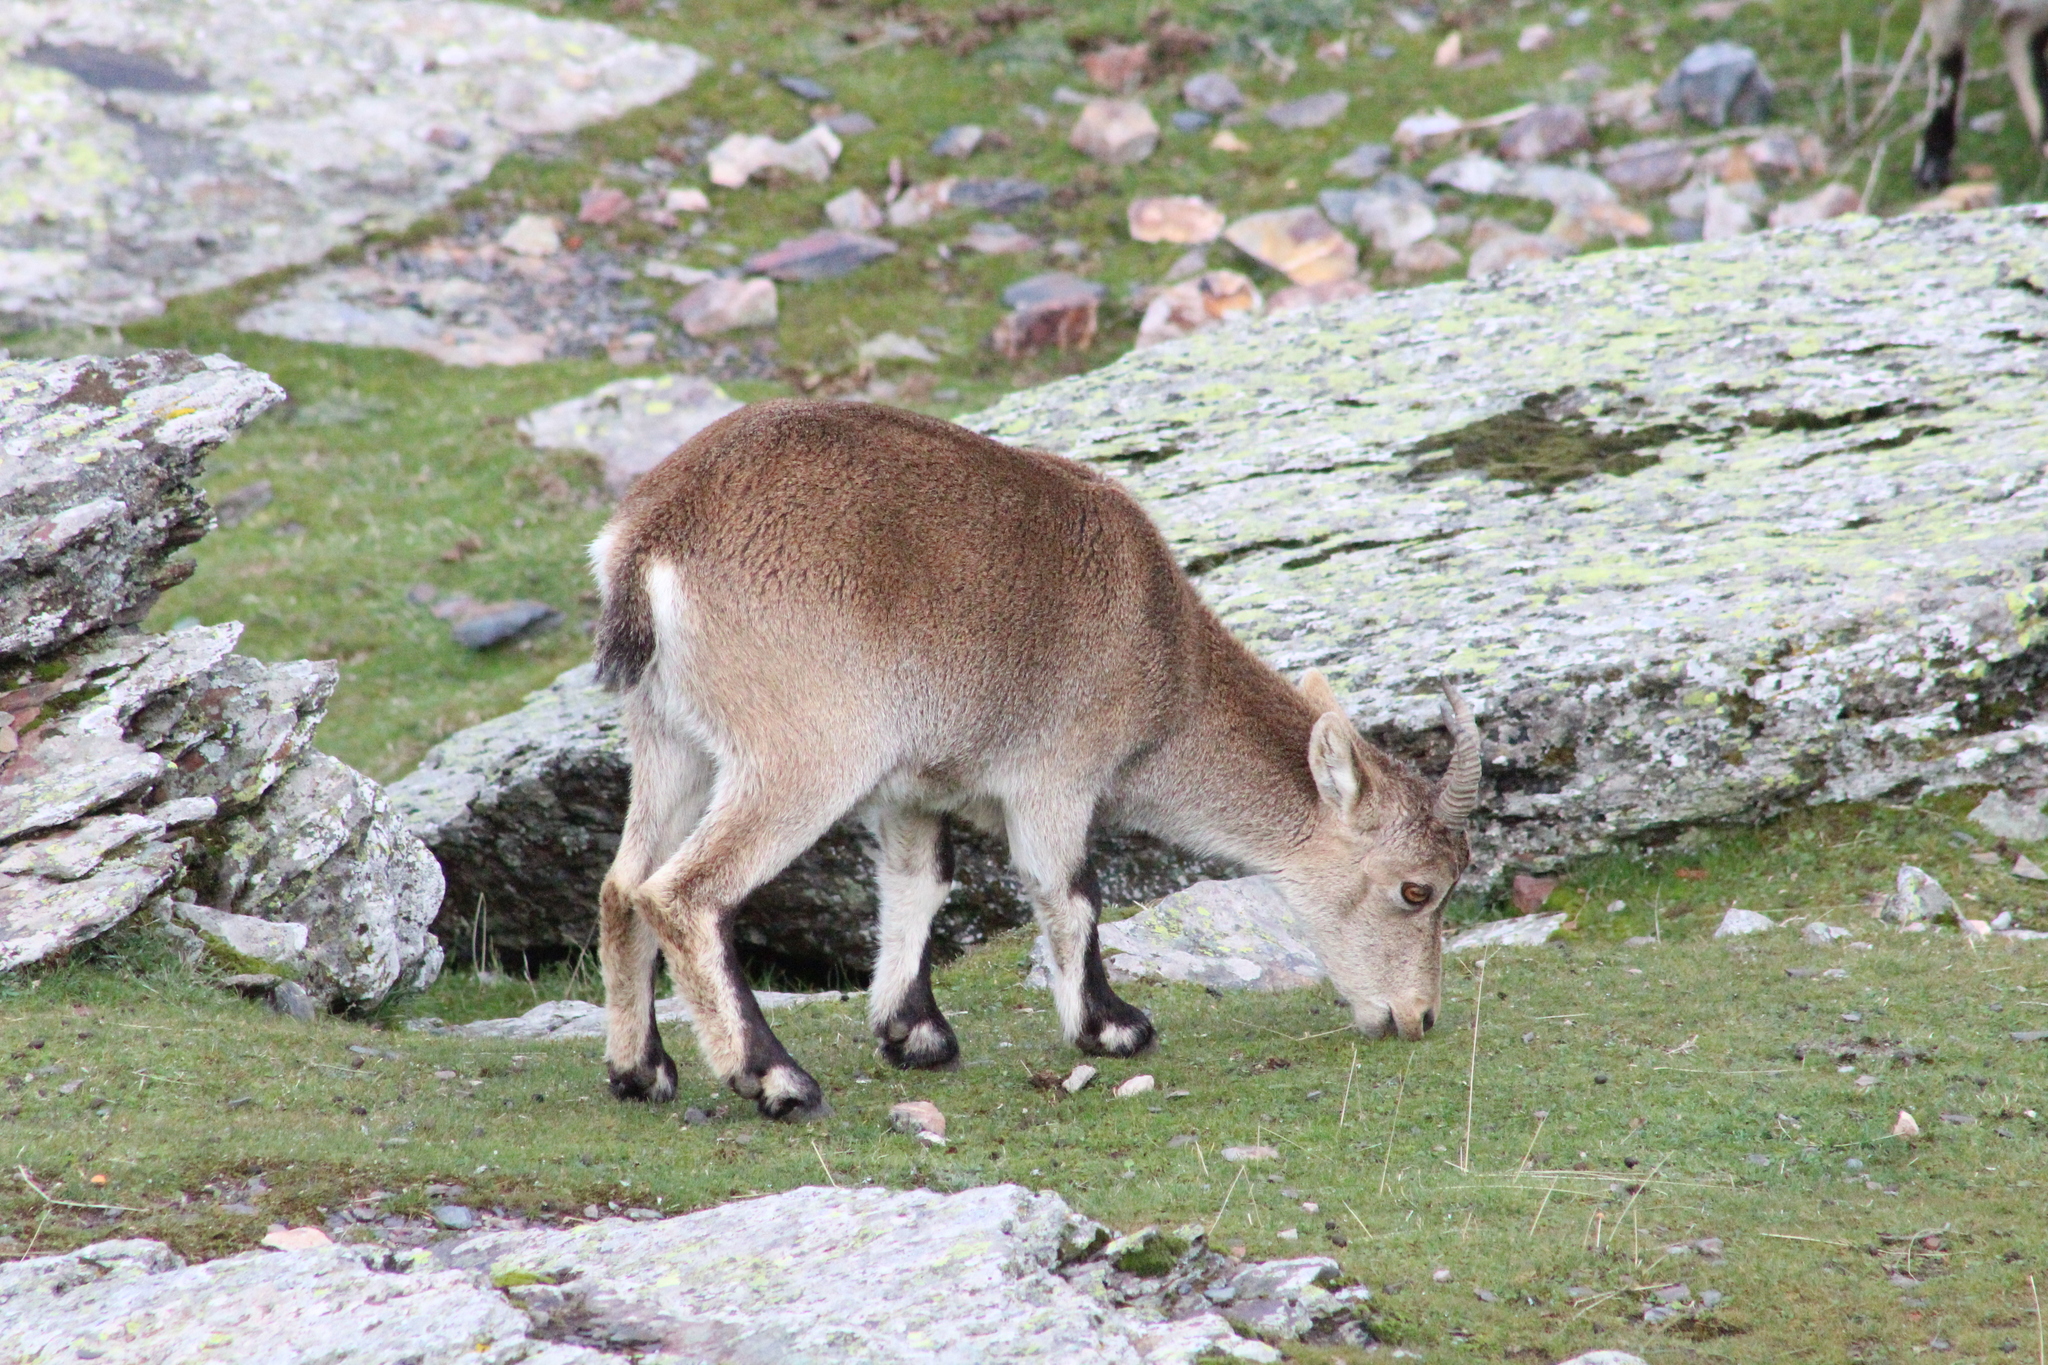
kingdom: Animalia
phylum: Chordata
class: Mammalia
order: Artiodactyla
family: Bovidae
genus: Capra
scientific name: Capra pyrenaica
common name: Spanish ibex
